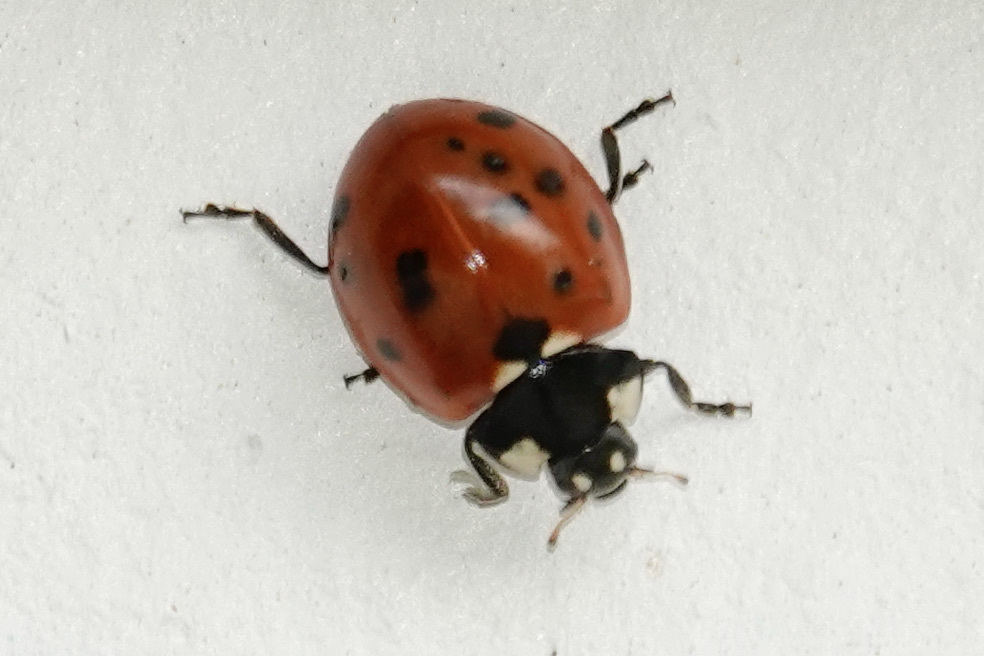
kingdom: Animalia
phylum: Arthropoda
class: Insecta
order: Coleoptera
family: Coccinellidae
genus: Coccinella
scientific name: Coccinella septempunctata
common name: Sevenspotted lady beetle
